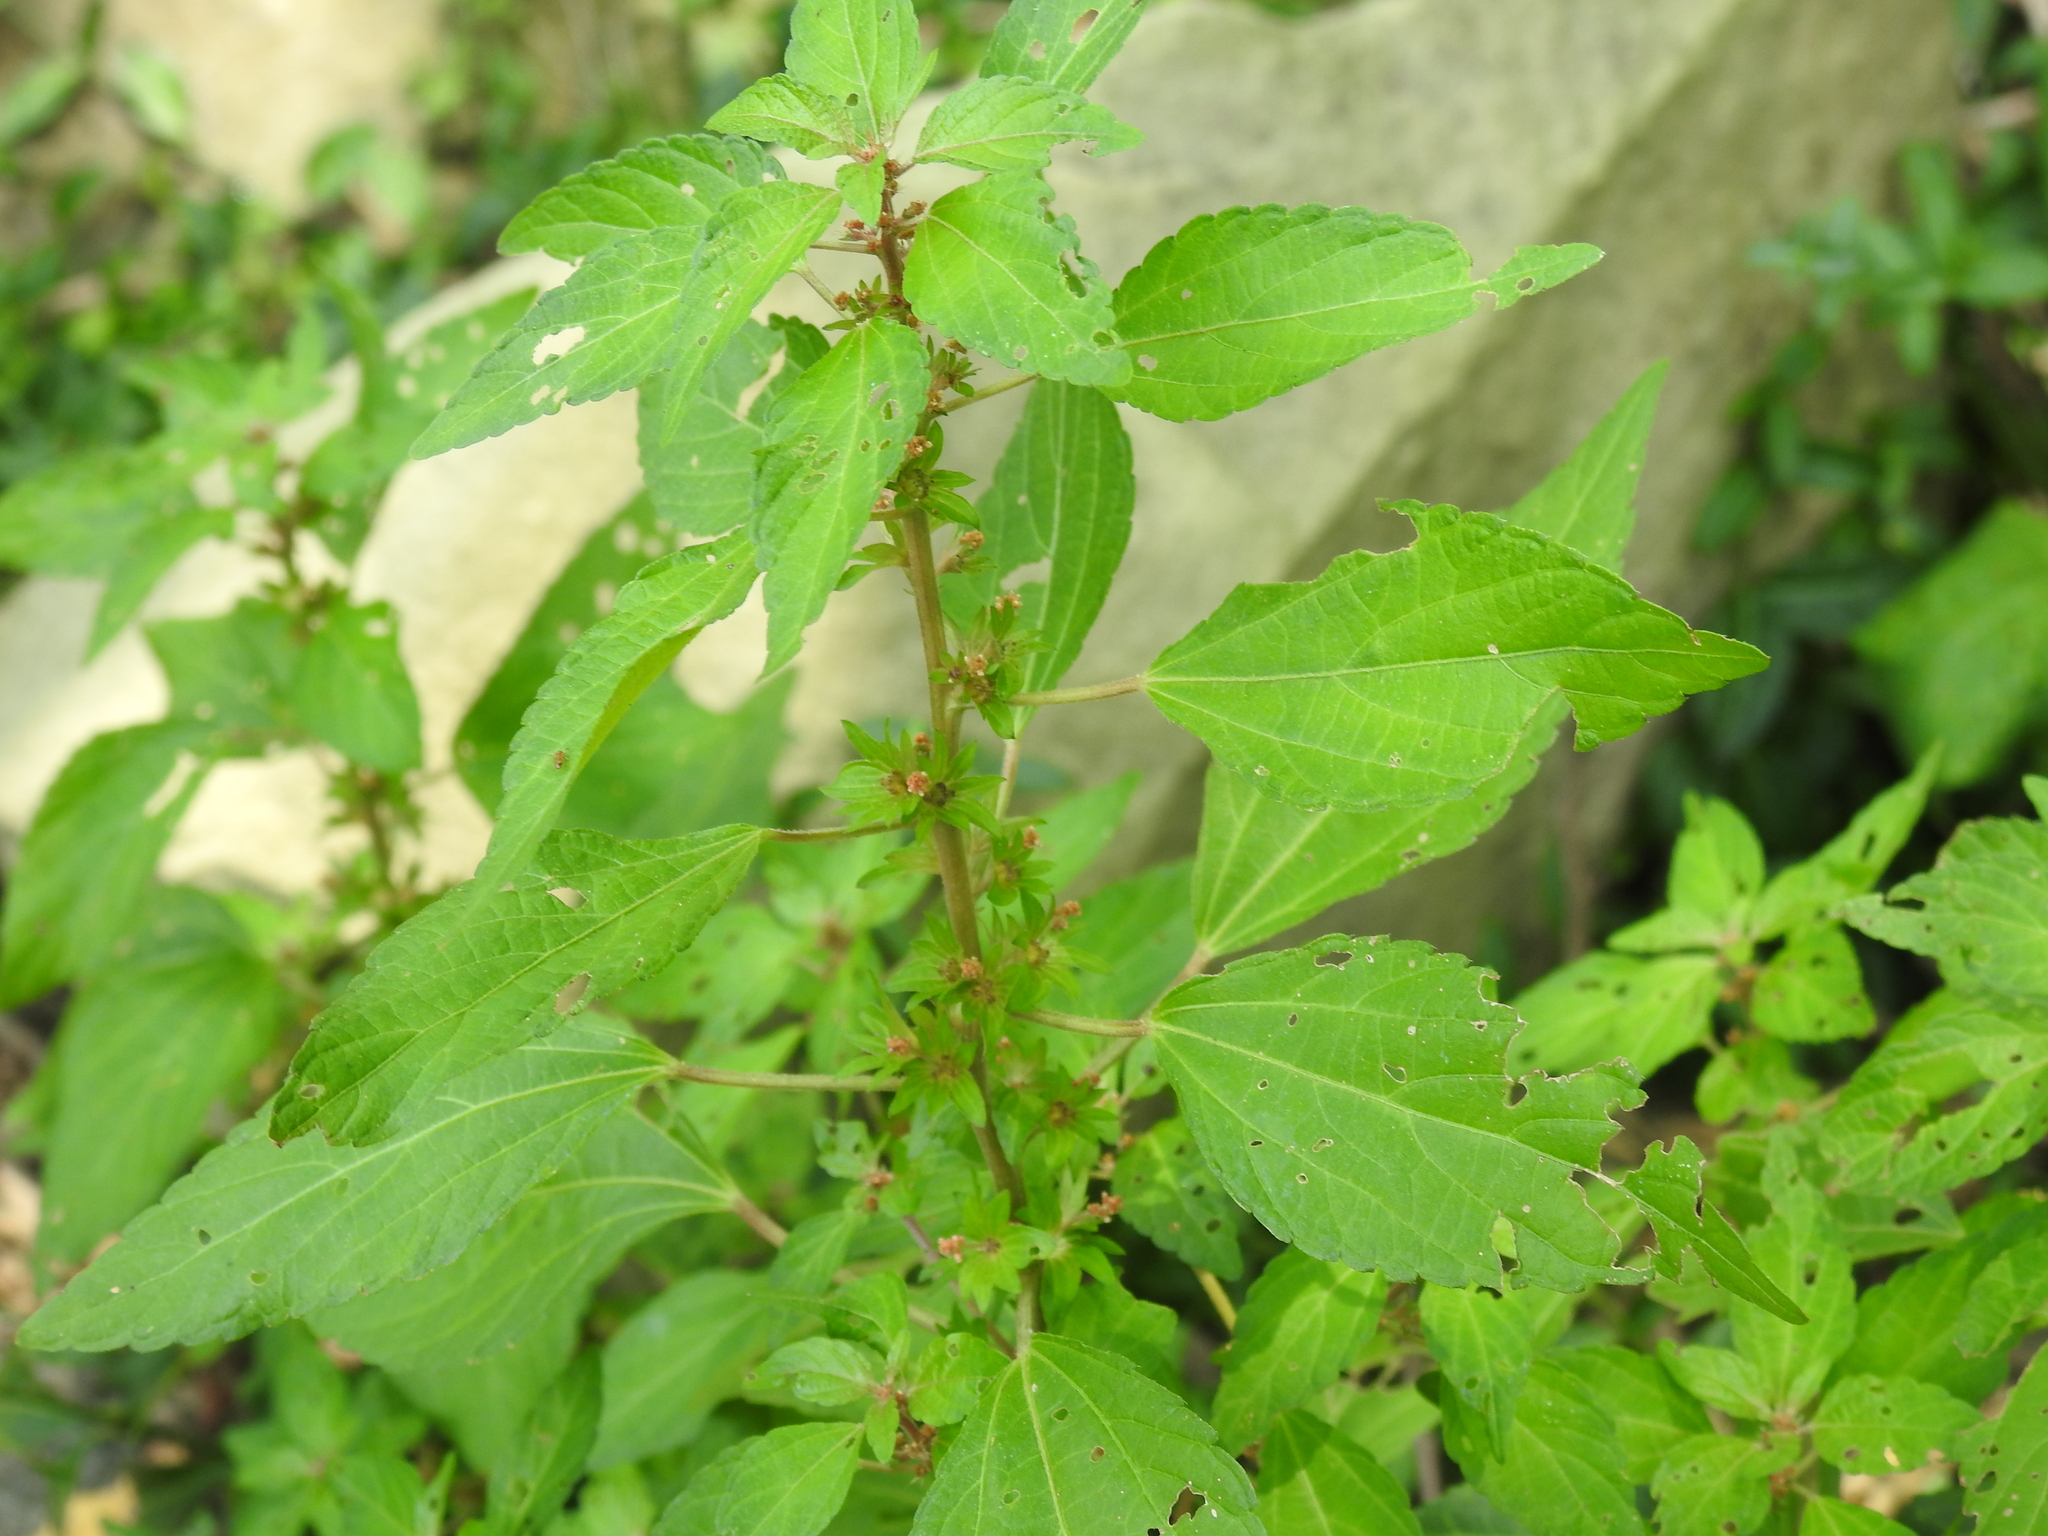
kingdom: Plantae
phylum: Tracheophyta
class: Magnoliopsida
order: Malpighiales
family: Euphorbiaceae
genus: Acalypha
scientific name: Acalypha rhomboidea
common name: Rhombic copperleaf
